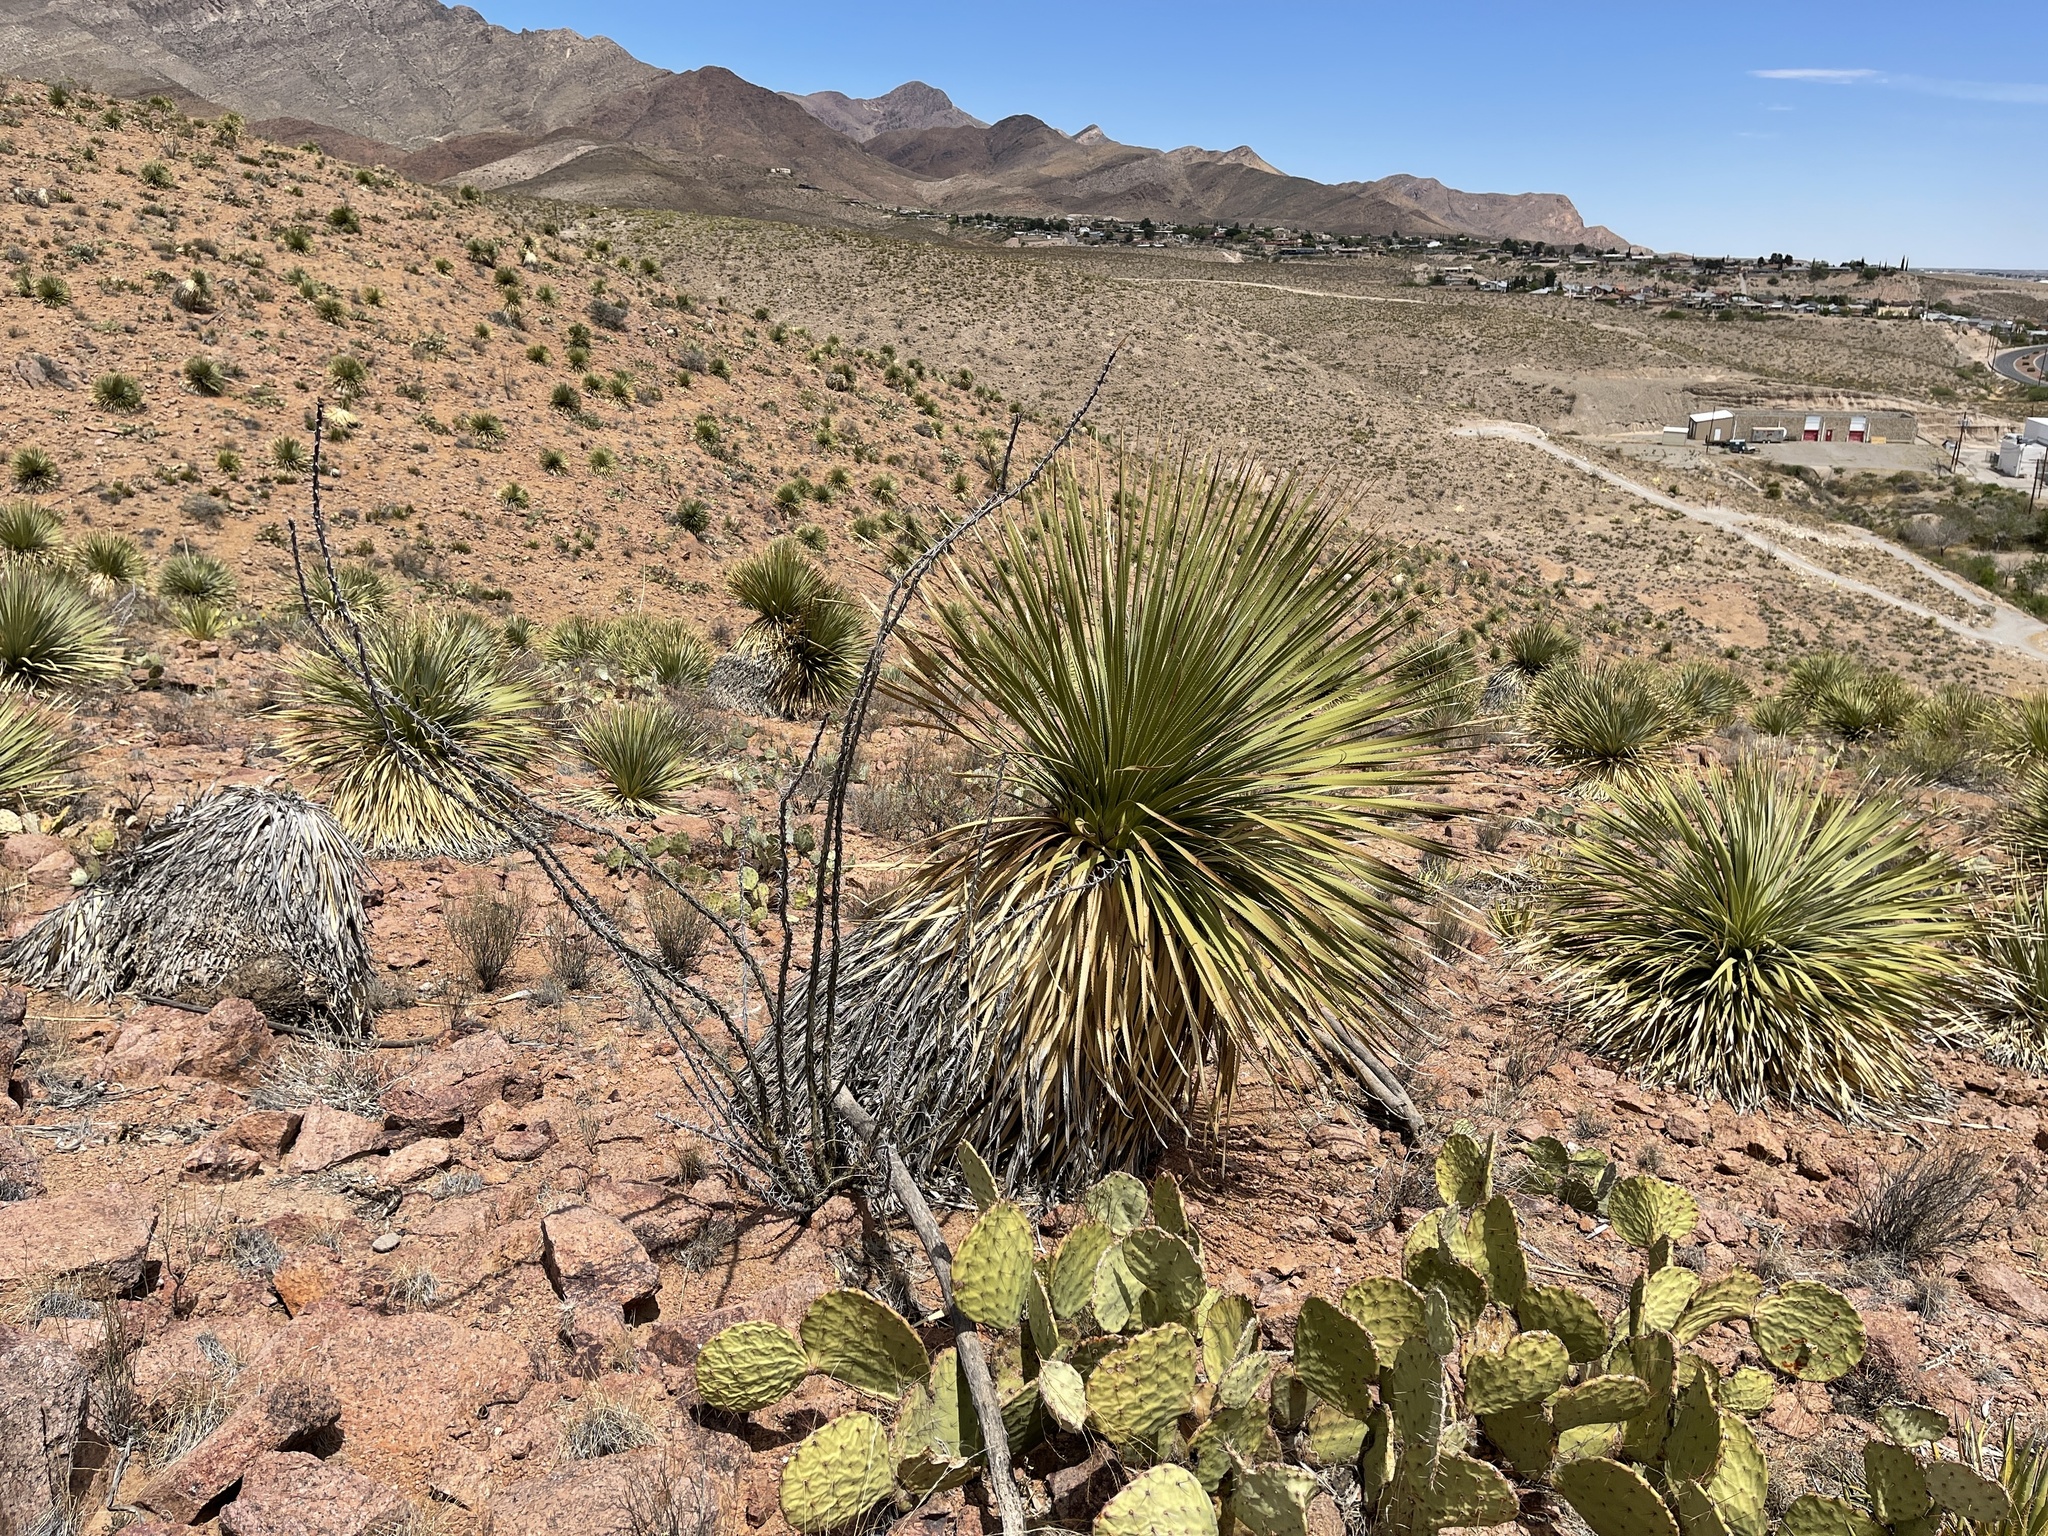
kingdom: Plantae
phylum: Tracheophyta
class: Magnoliopsida
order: Ericales
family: Fouquieriaceae
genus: Fouquieria
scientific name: Fouquieria splendens
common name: Vine-cactus
